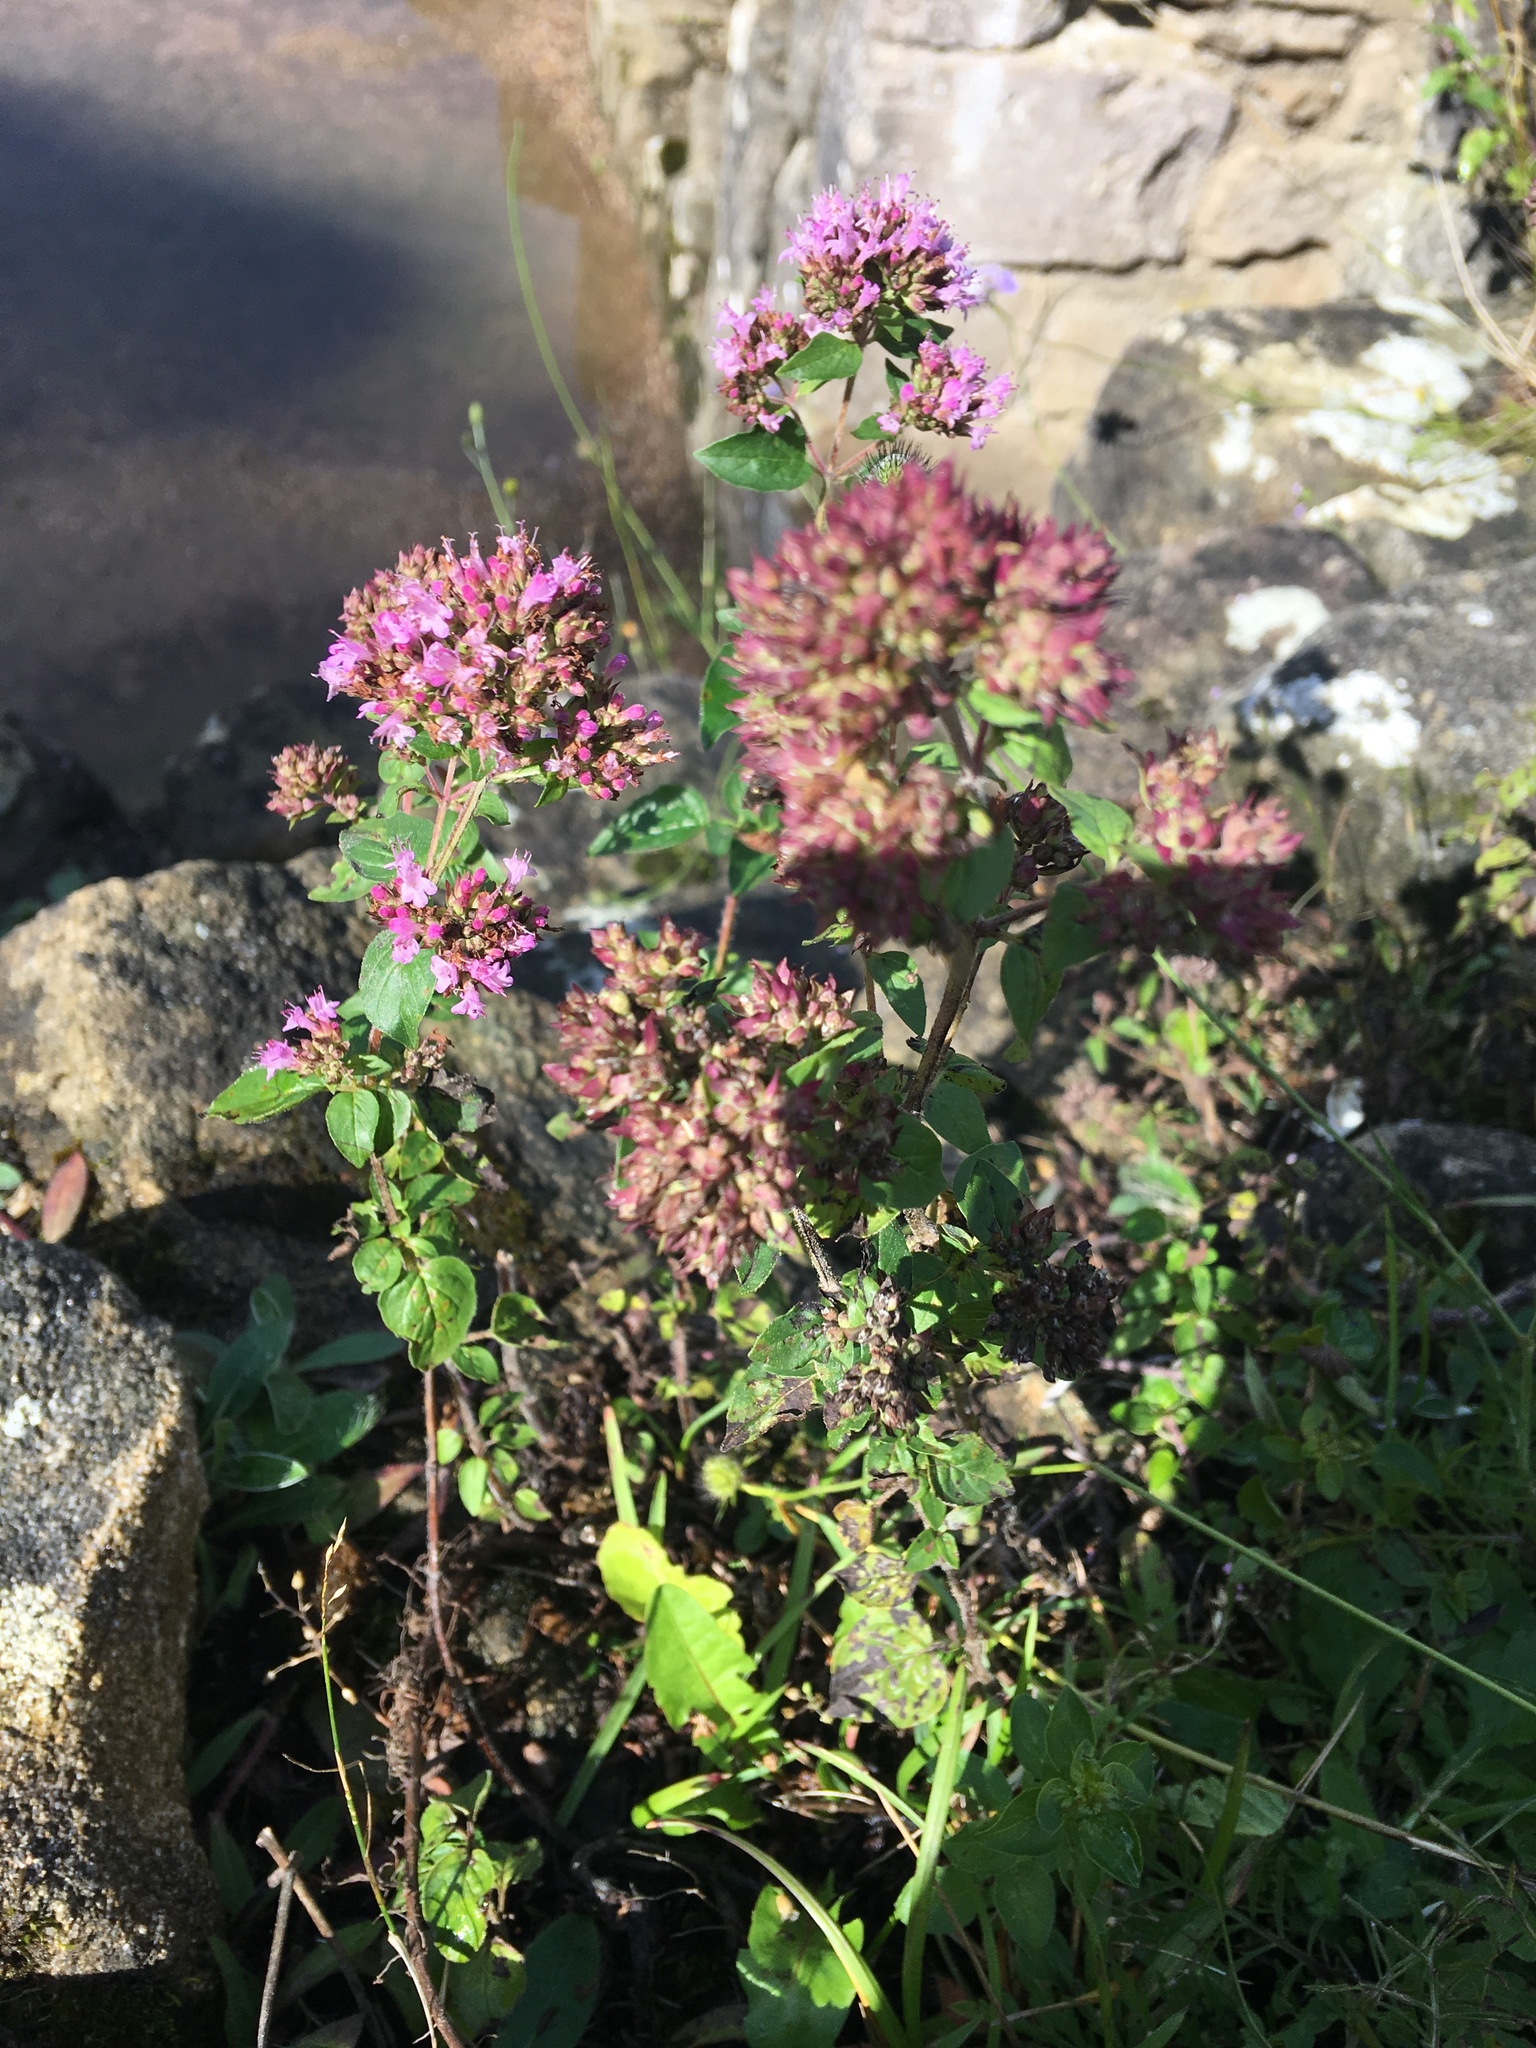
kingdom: Plantae
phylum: Tracheophyta
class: Magnoliopsida
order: Lamiales
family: Lamiaceae
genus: Origanum
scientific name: Origanum vulgare
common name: Wild marjoram
